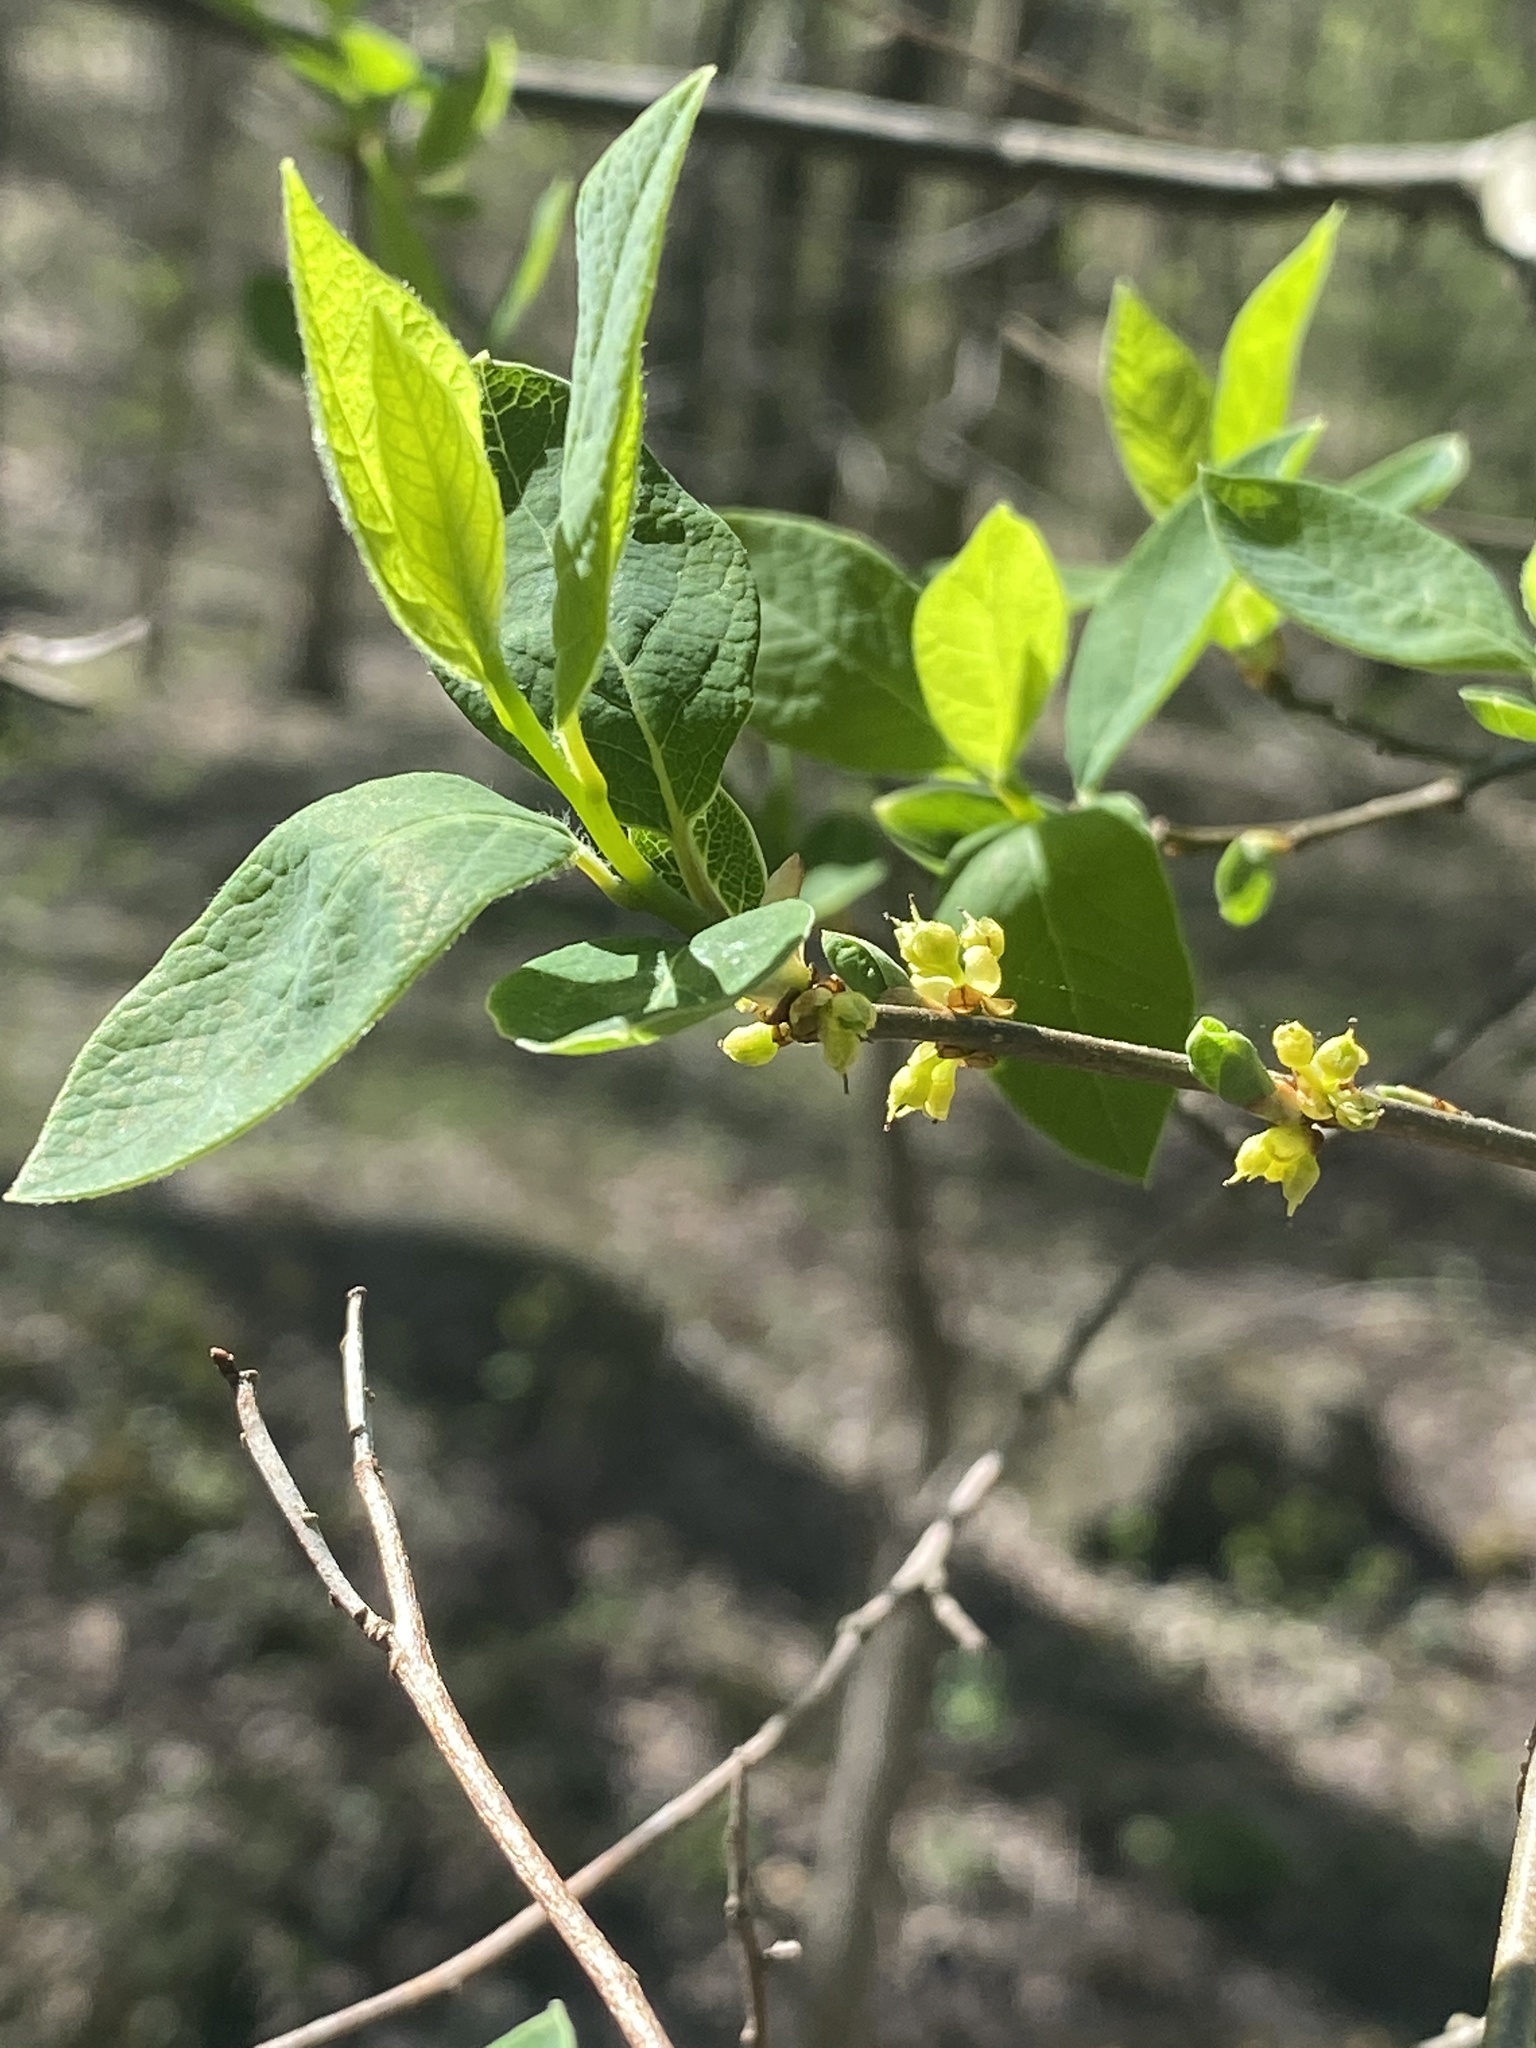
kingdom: Plantae
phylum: Tracheophyta
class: Magnoliopsida
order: Laurales
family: Lauraceae
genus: Lindera
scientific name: Lindera benzoin
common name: Spicebush
